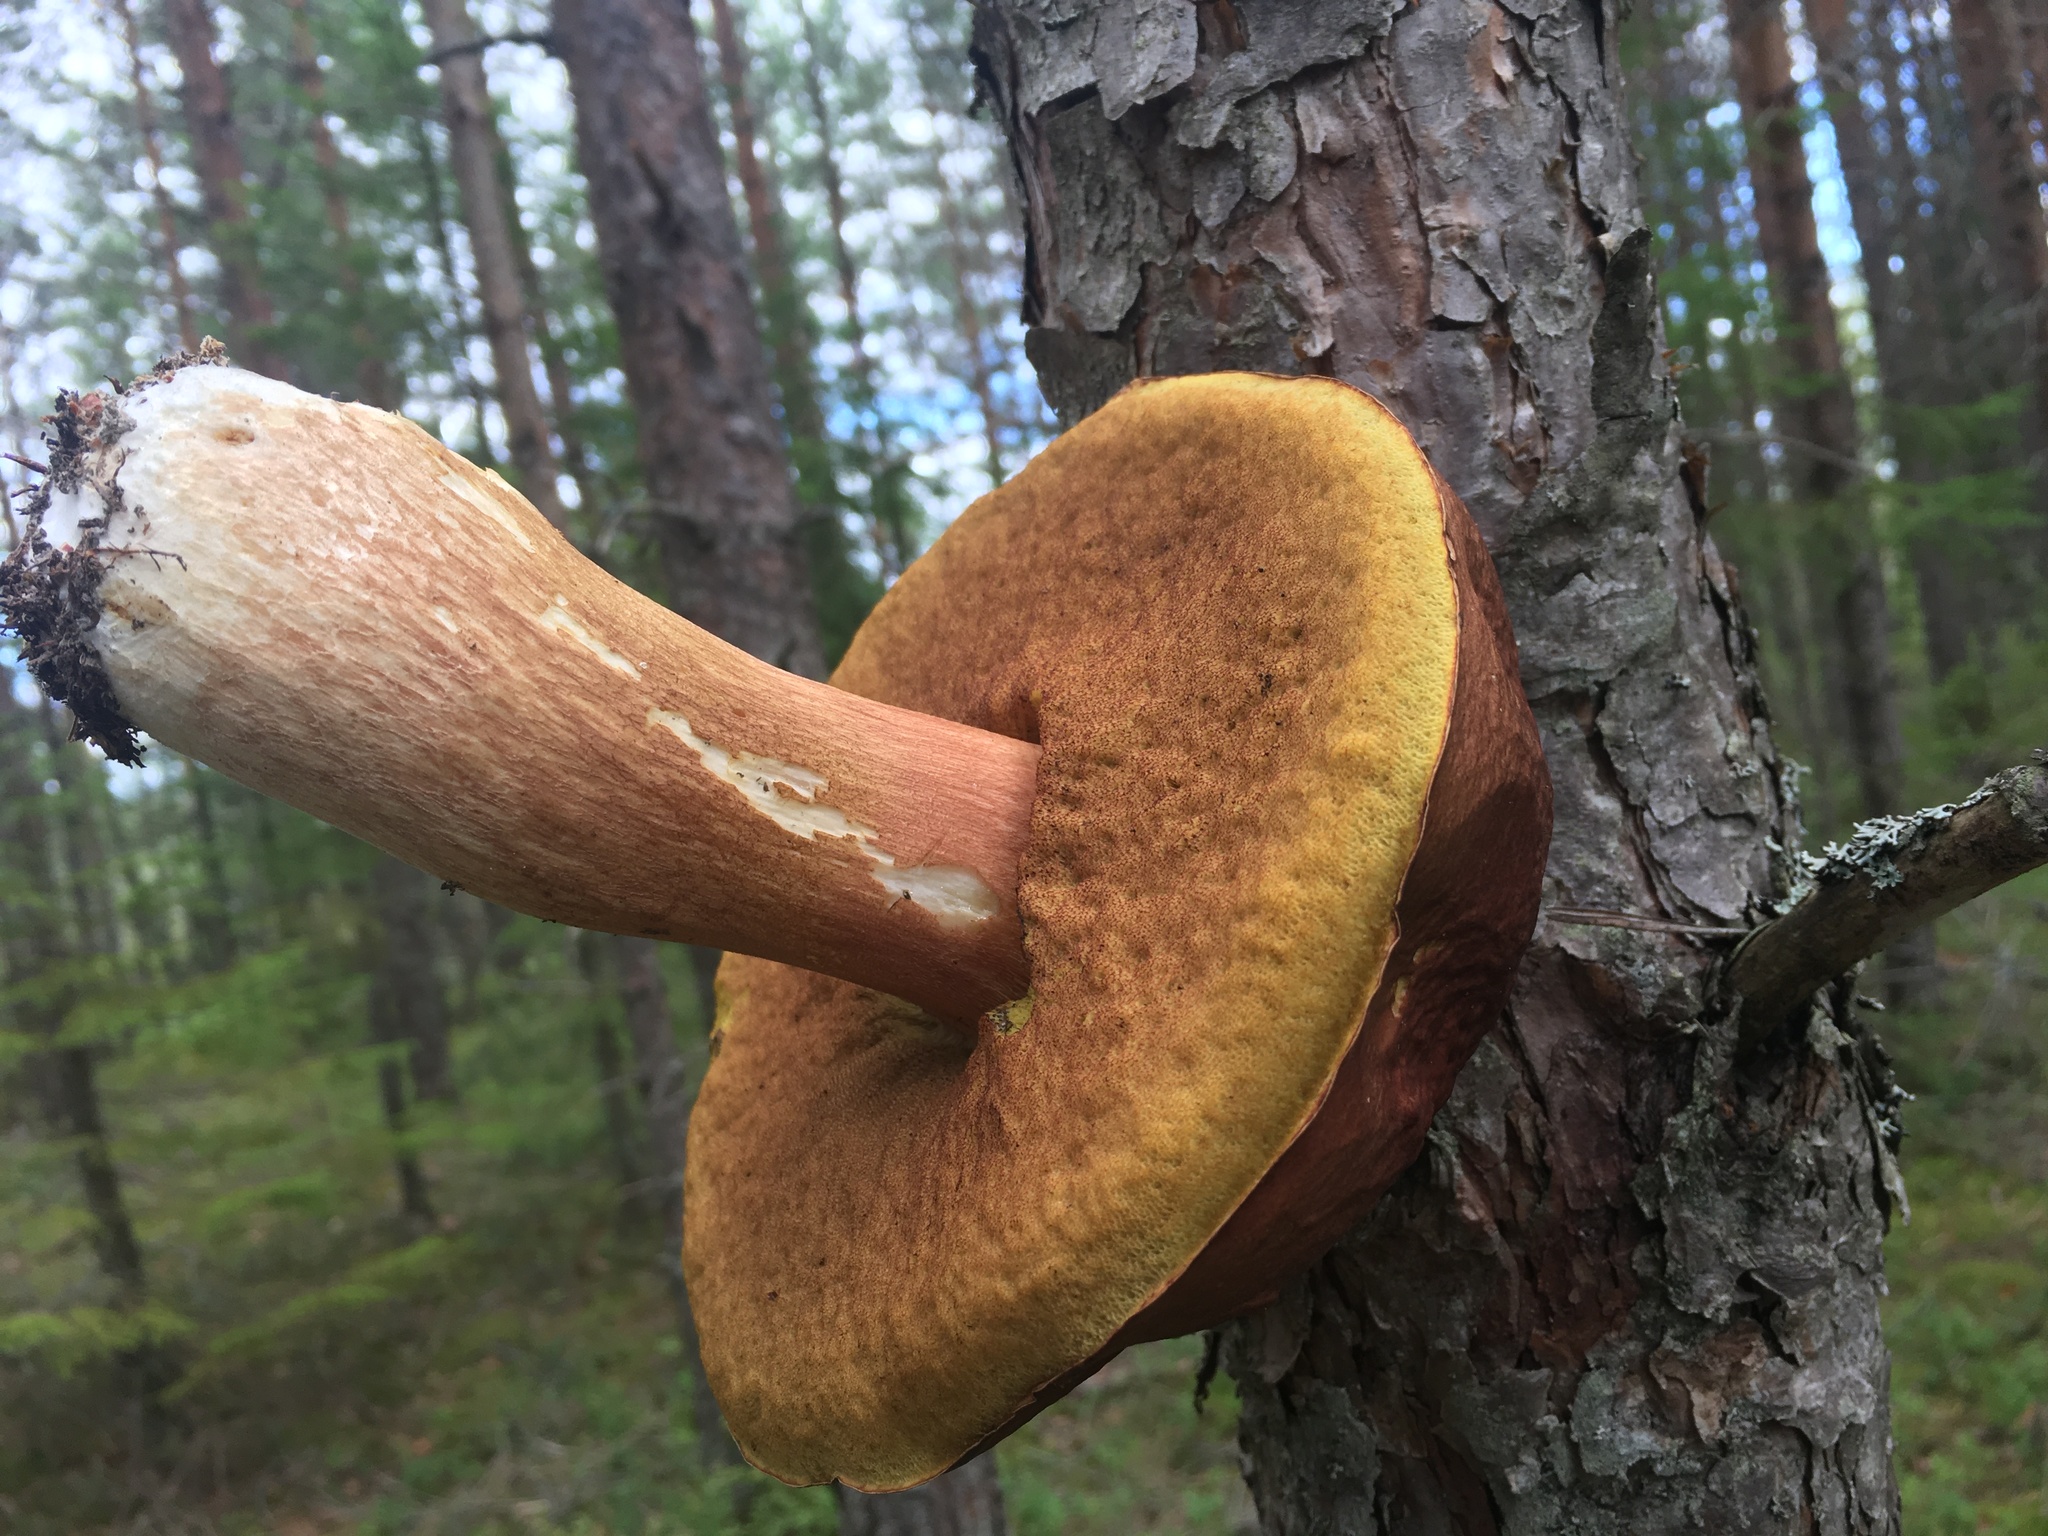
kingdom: Fungi
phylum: Basidiomycota
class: Agaricomycetes
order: Boletales
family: Boletaceae
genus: Boletus
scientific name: Boletus edulis
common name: Cep
